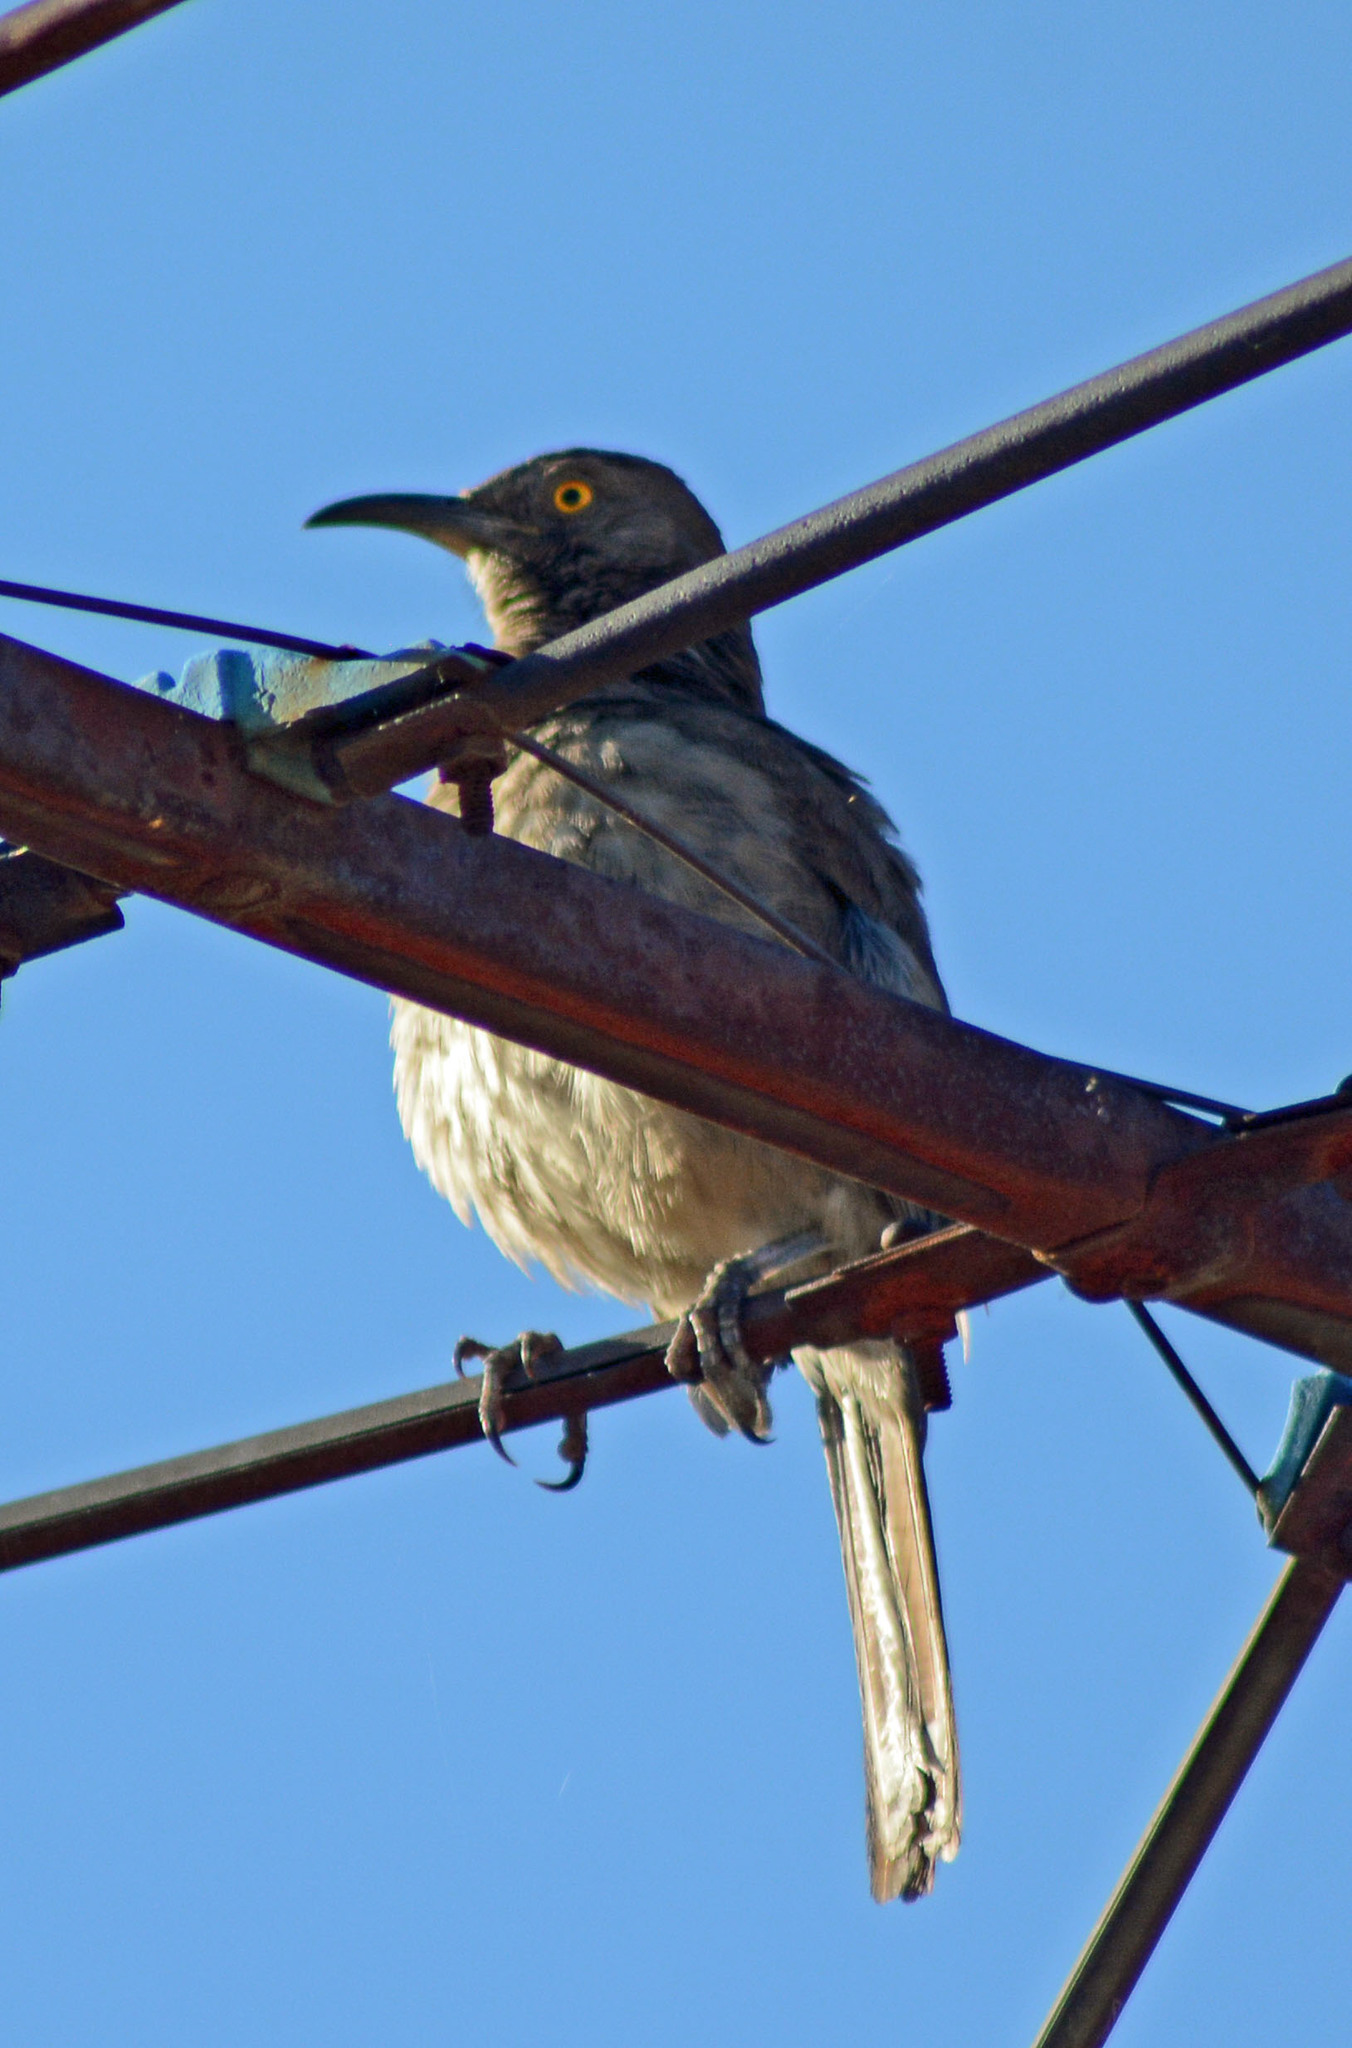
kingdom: Animalia
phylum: Chordata
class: Aves
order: Passeriformes
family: Mimidae
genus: Toxostoma
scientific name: Toxostoma curvirostre
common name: Curve-billed thrasher
